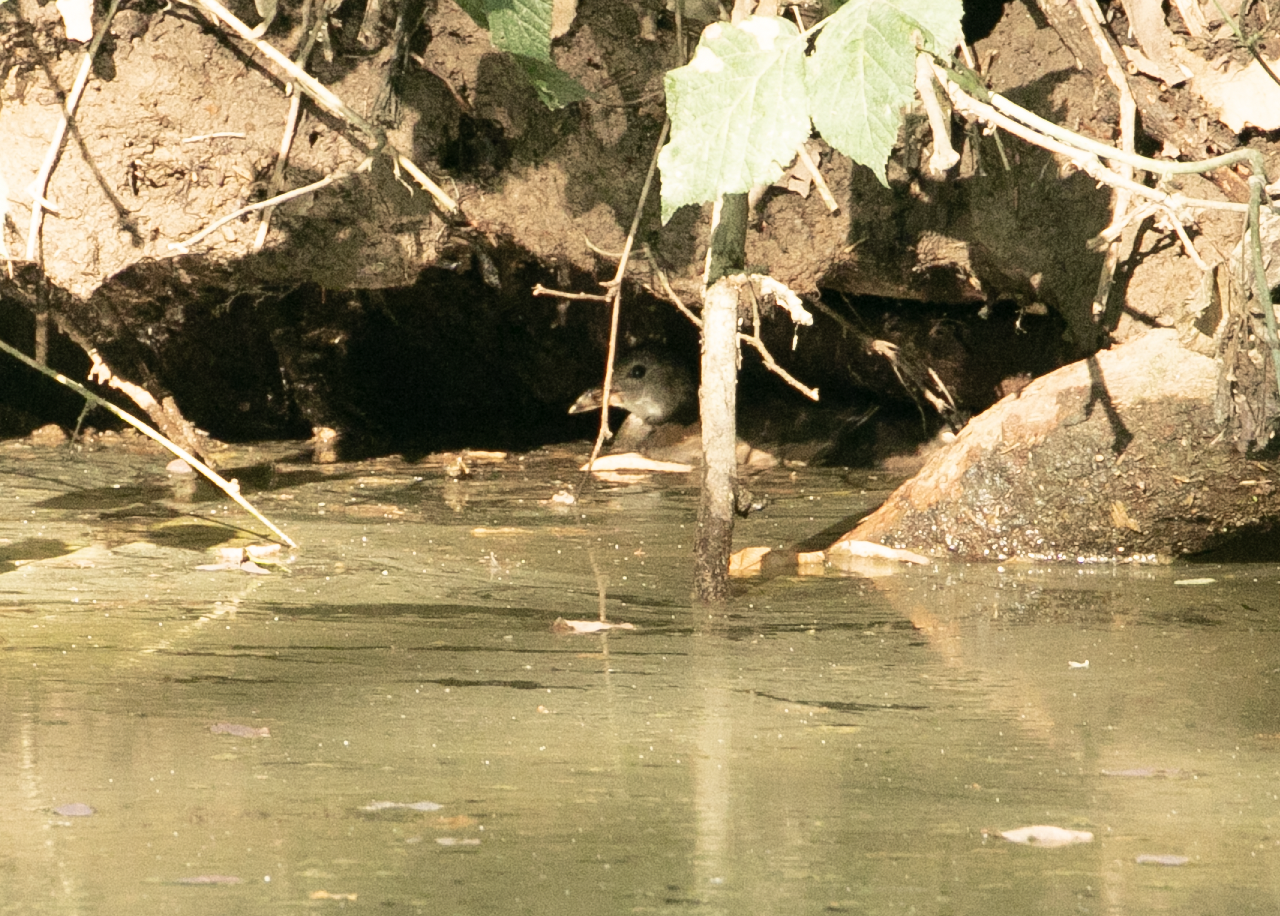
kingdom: Animalia
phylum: Chordata
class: Aves
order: Gruiformes
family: Rallidae
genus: Gallinula
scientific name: Gallinula chloropus
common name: Common moorhen
